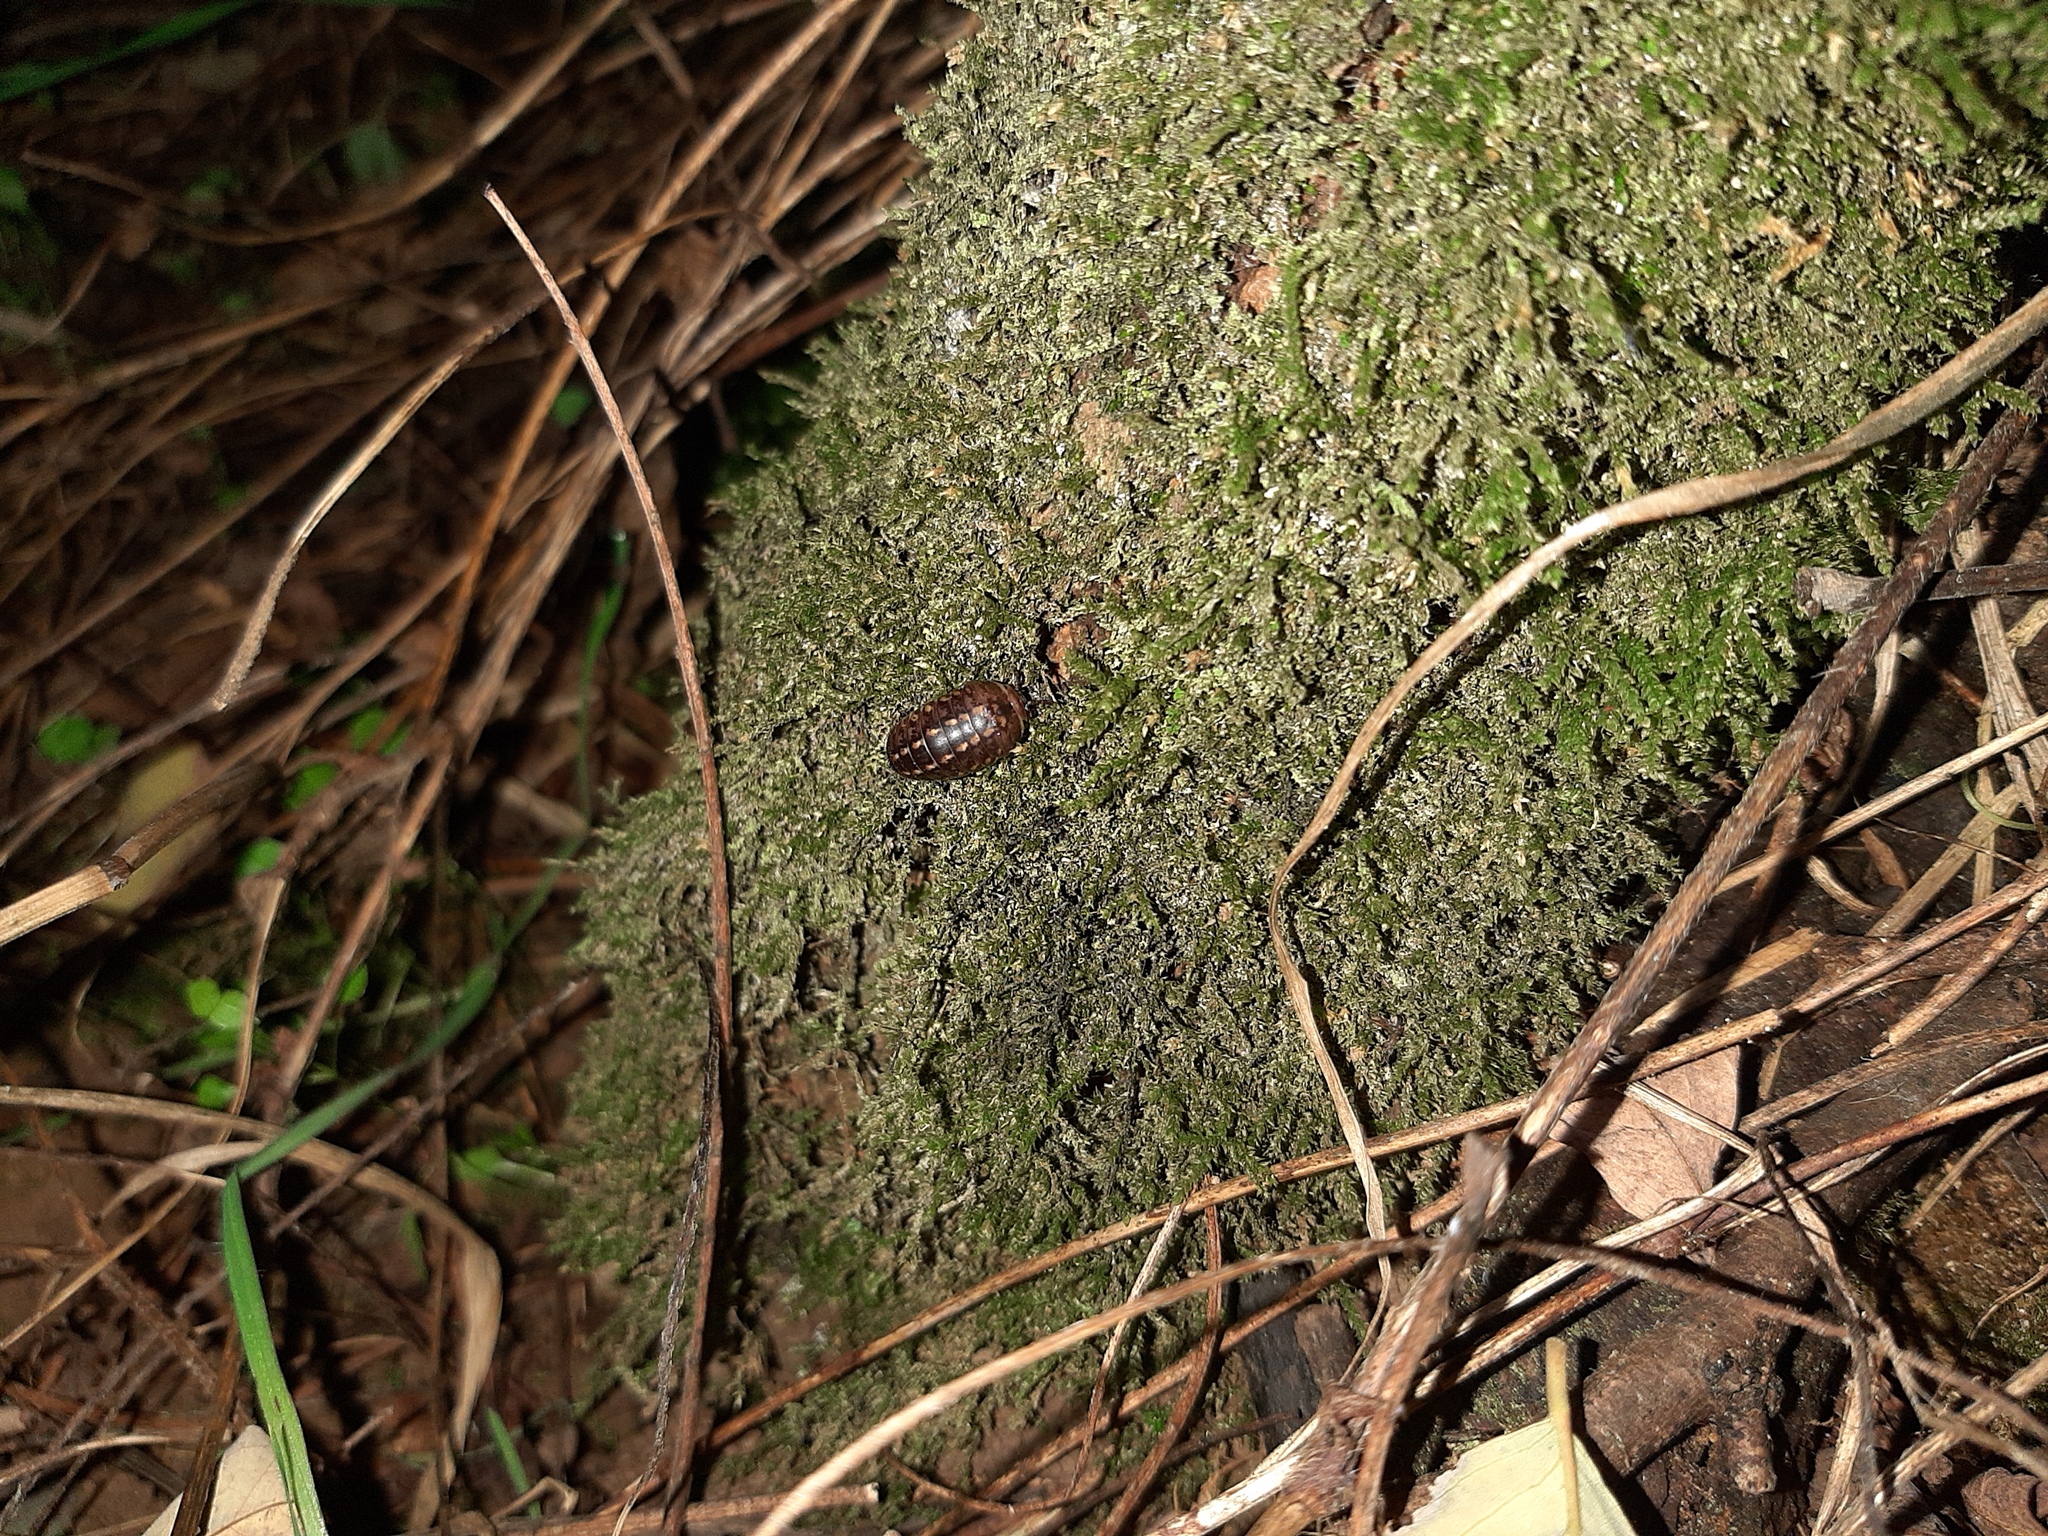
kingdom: Animalia
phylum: Arthropoda
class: Diplopoda
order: Glomerida
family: Glomeridae
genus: Glomeris
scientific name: Glomeris klugii
